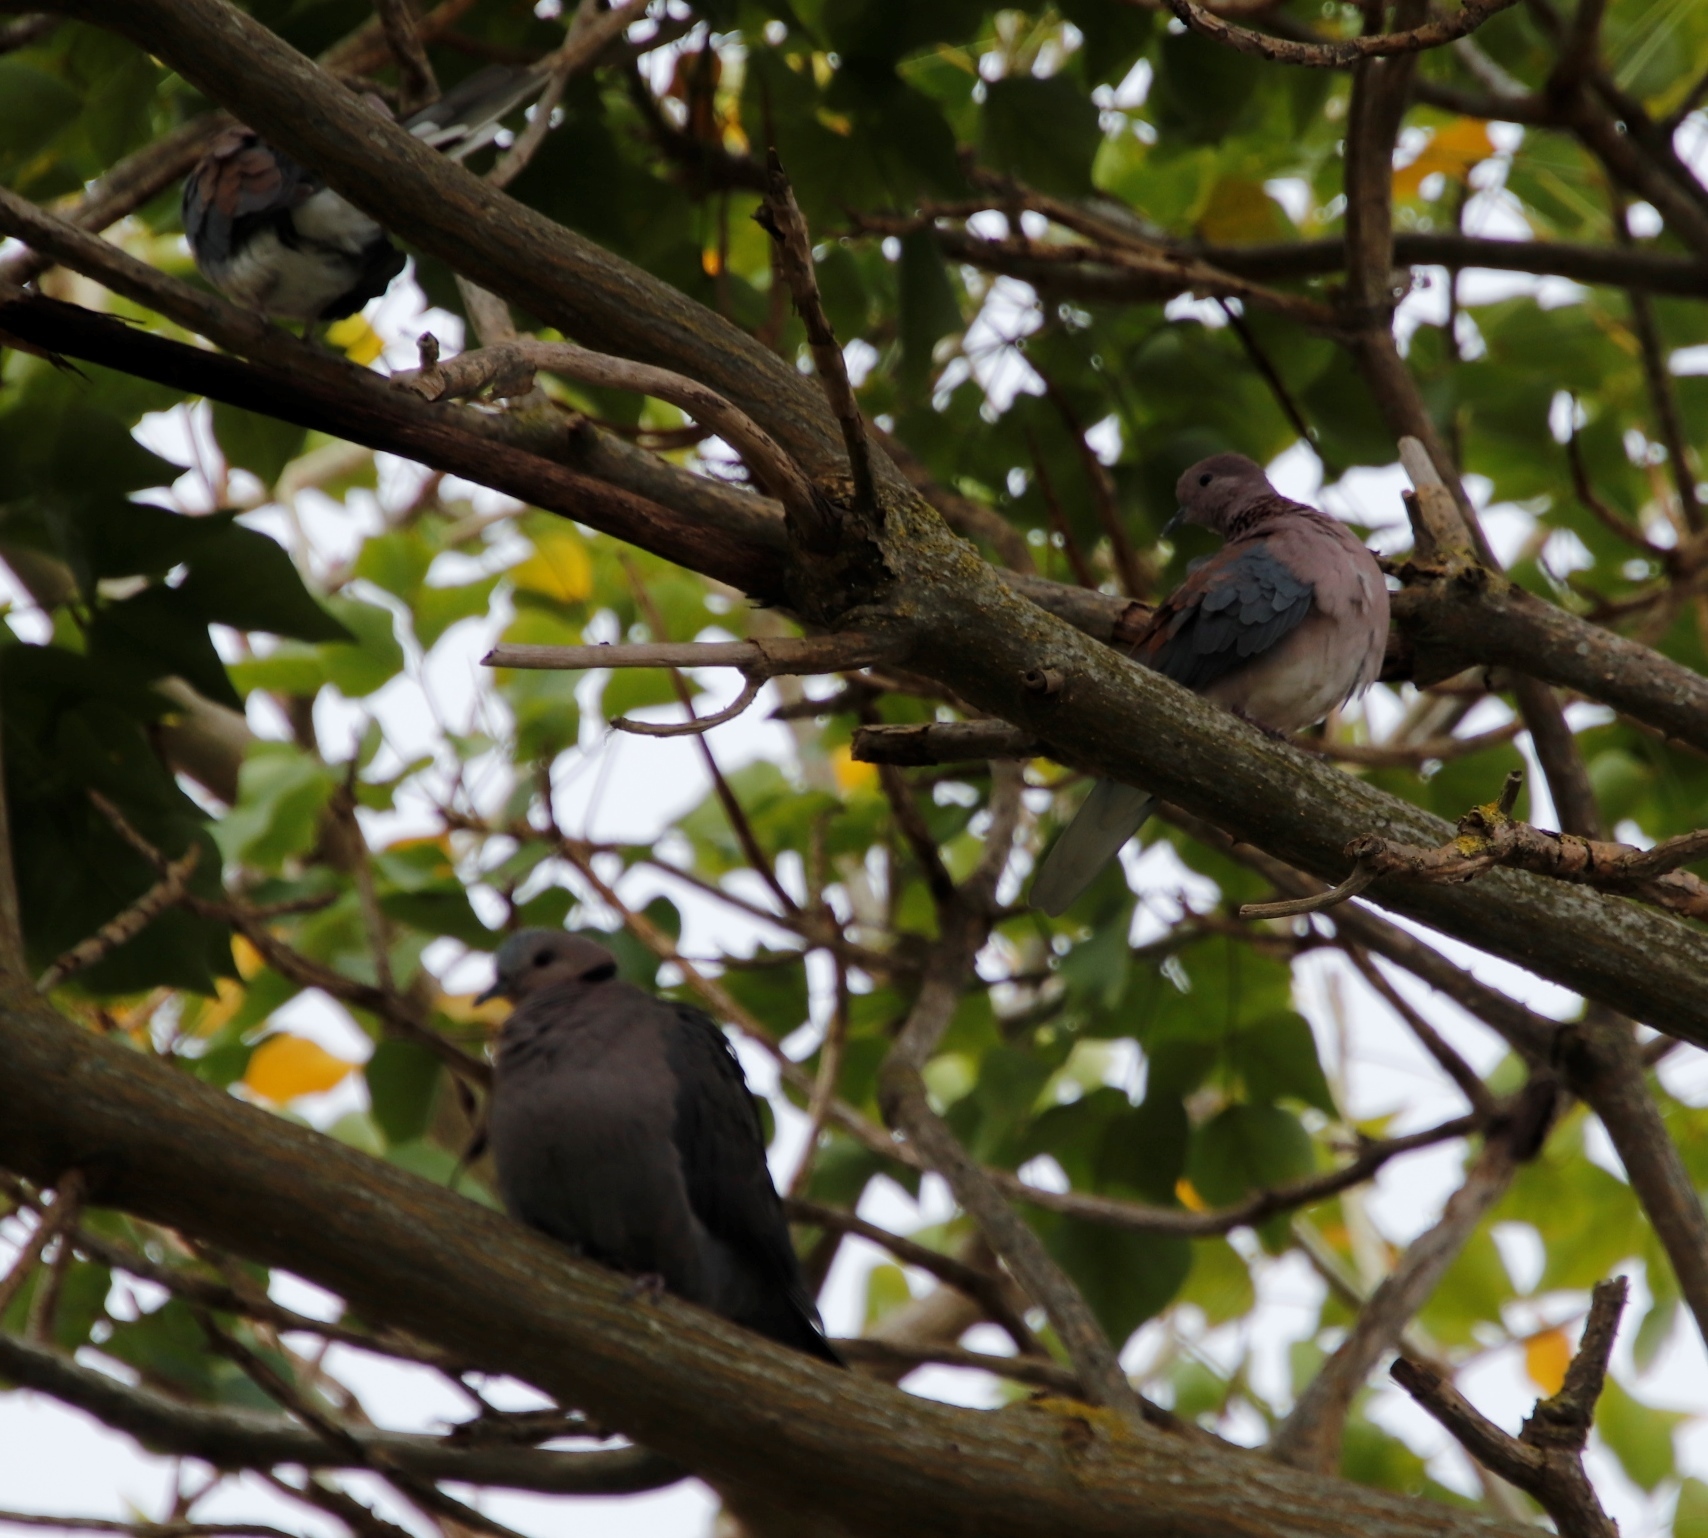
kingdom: Animalia
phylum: Chordata
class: Aves
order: Columbiformes
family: Columbidae
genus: Spilopelia
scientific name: Spilopelia senegalensis
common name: Laughing dove
